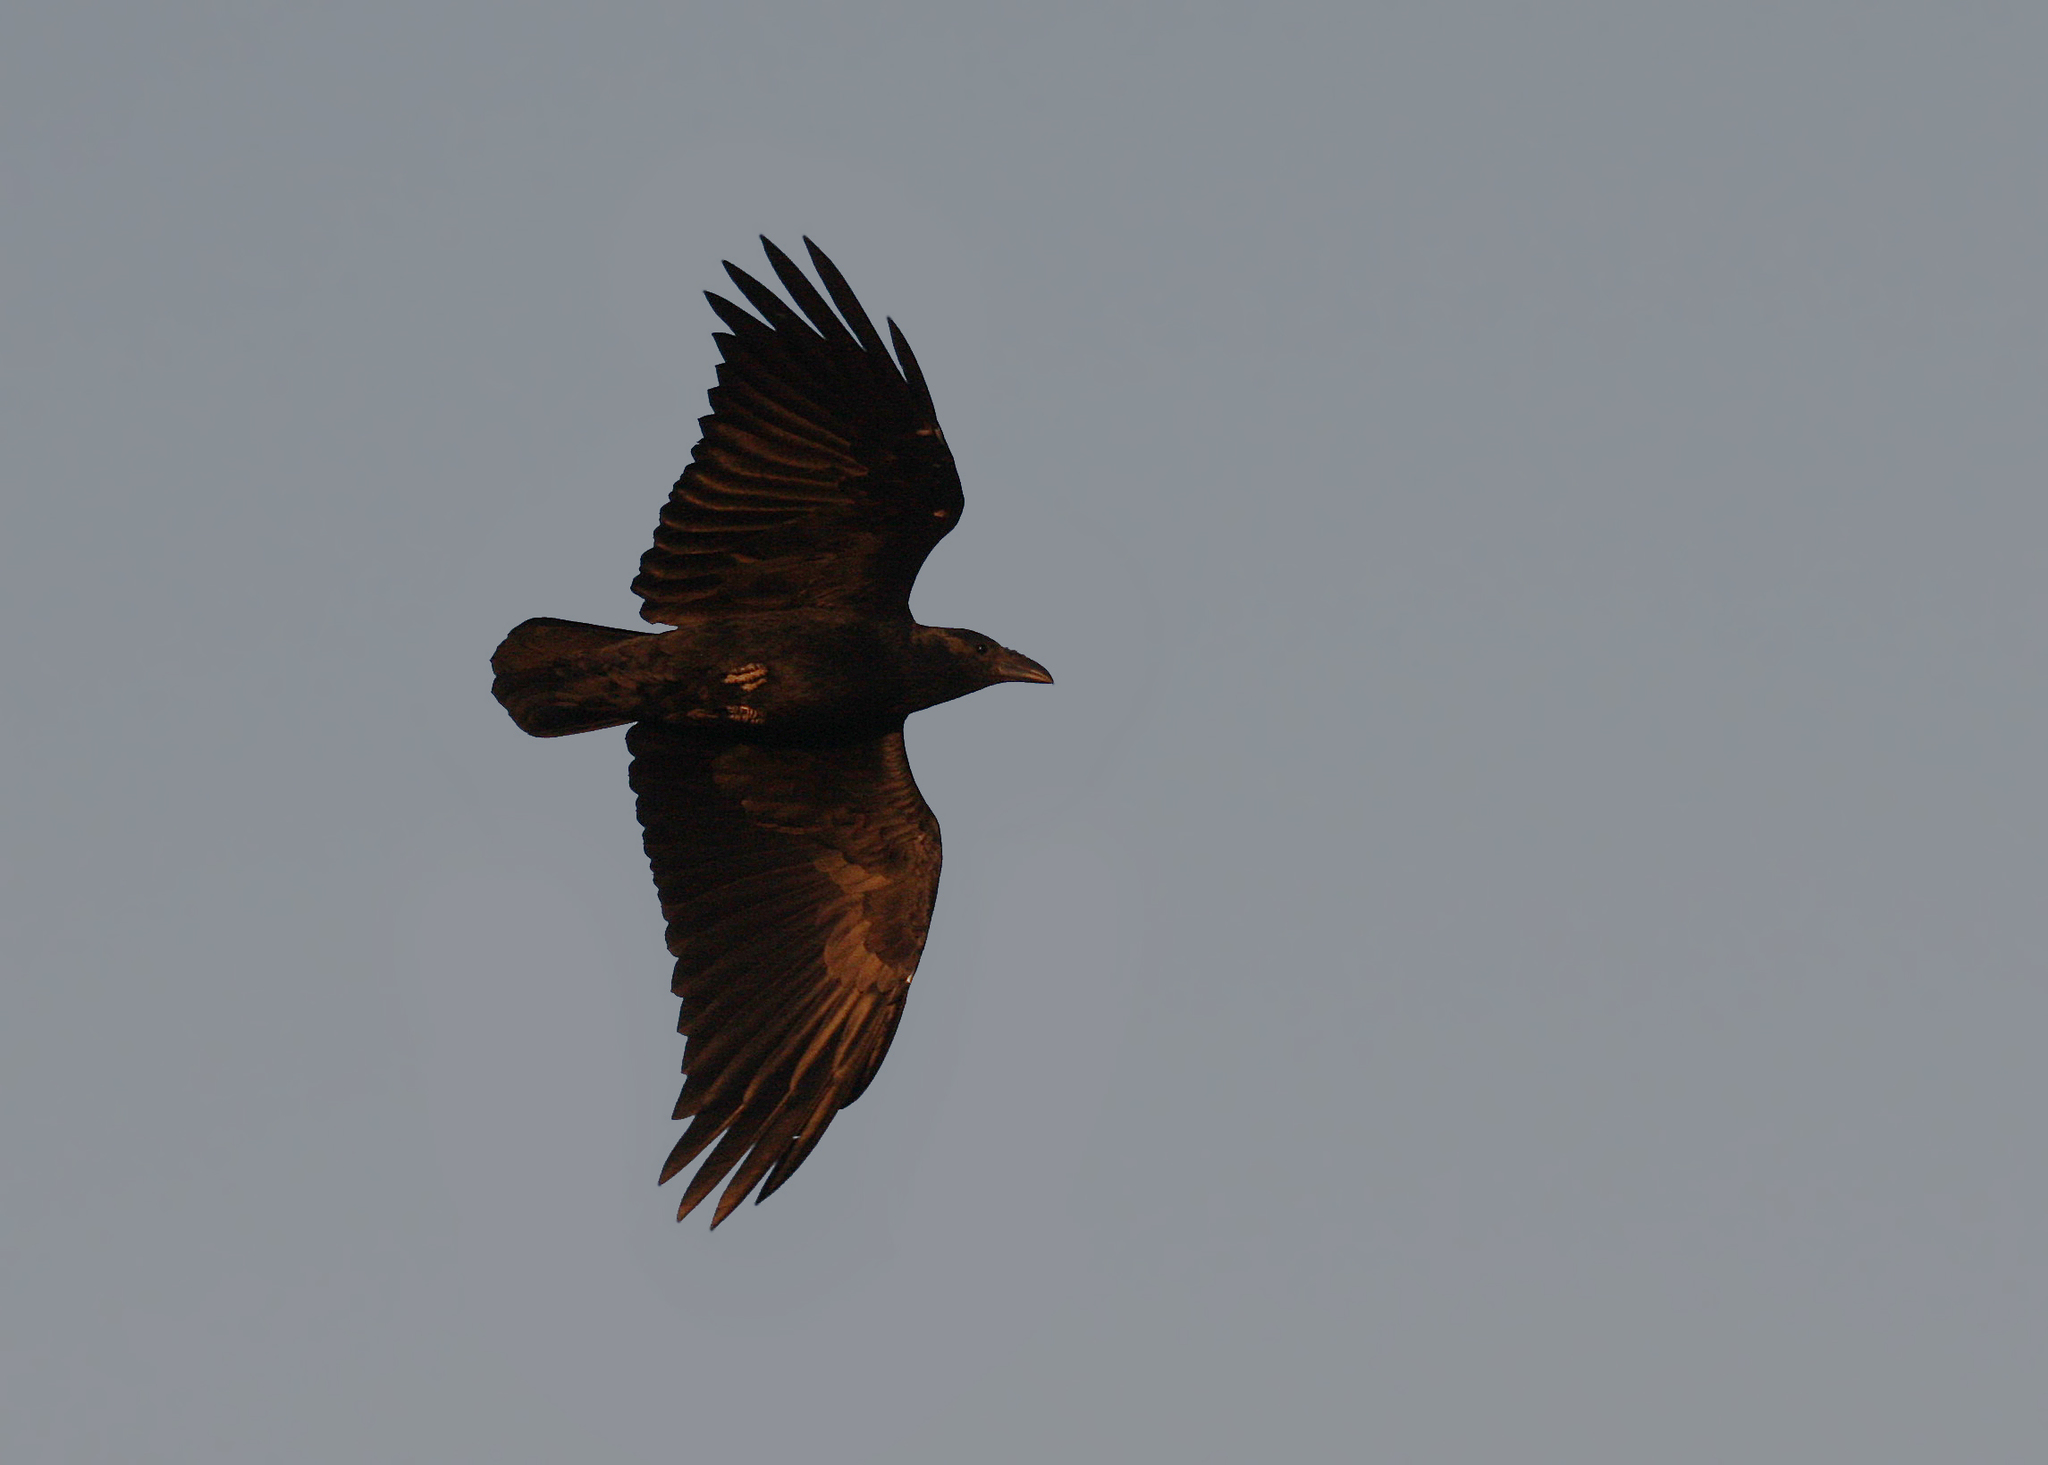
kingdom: Animalia
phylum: Chordata
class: Aves
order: Passeriformes
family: Corvidae
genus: Corvus
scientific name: Corvus rhipidurus
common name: Fan-tailed raven
